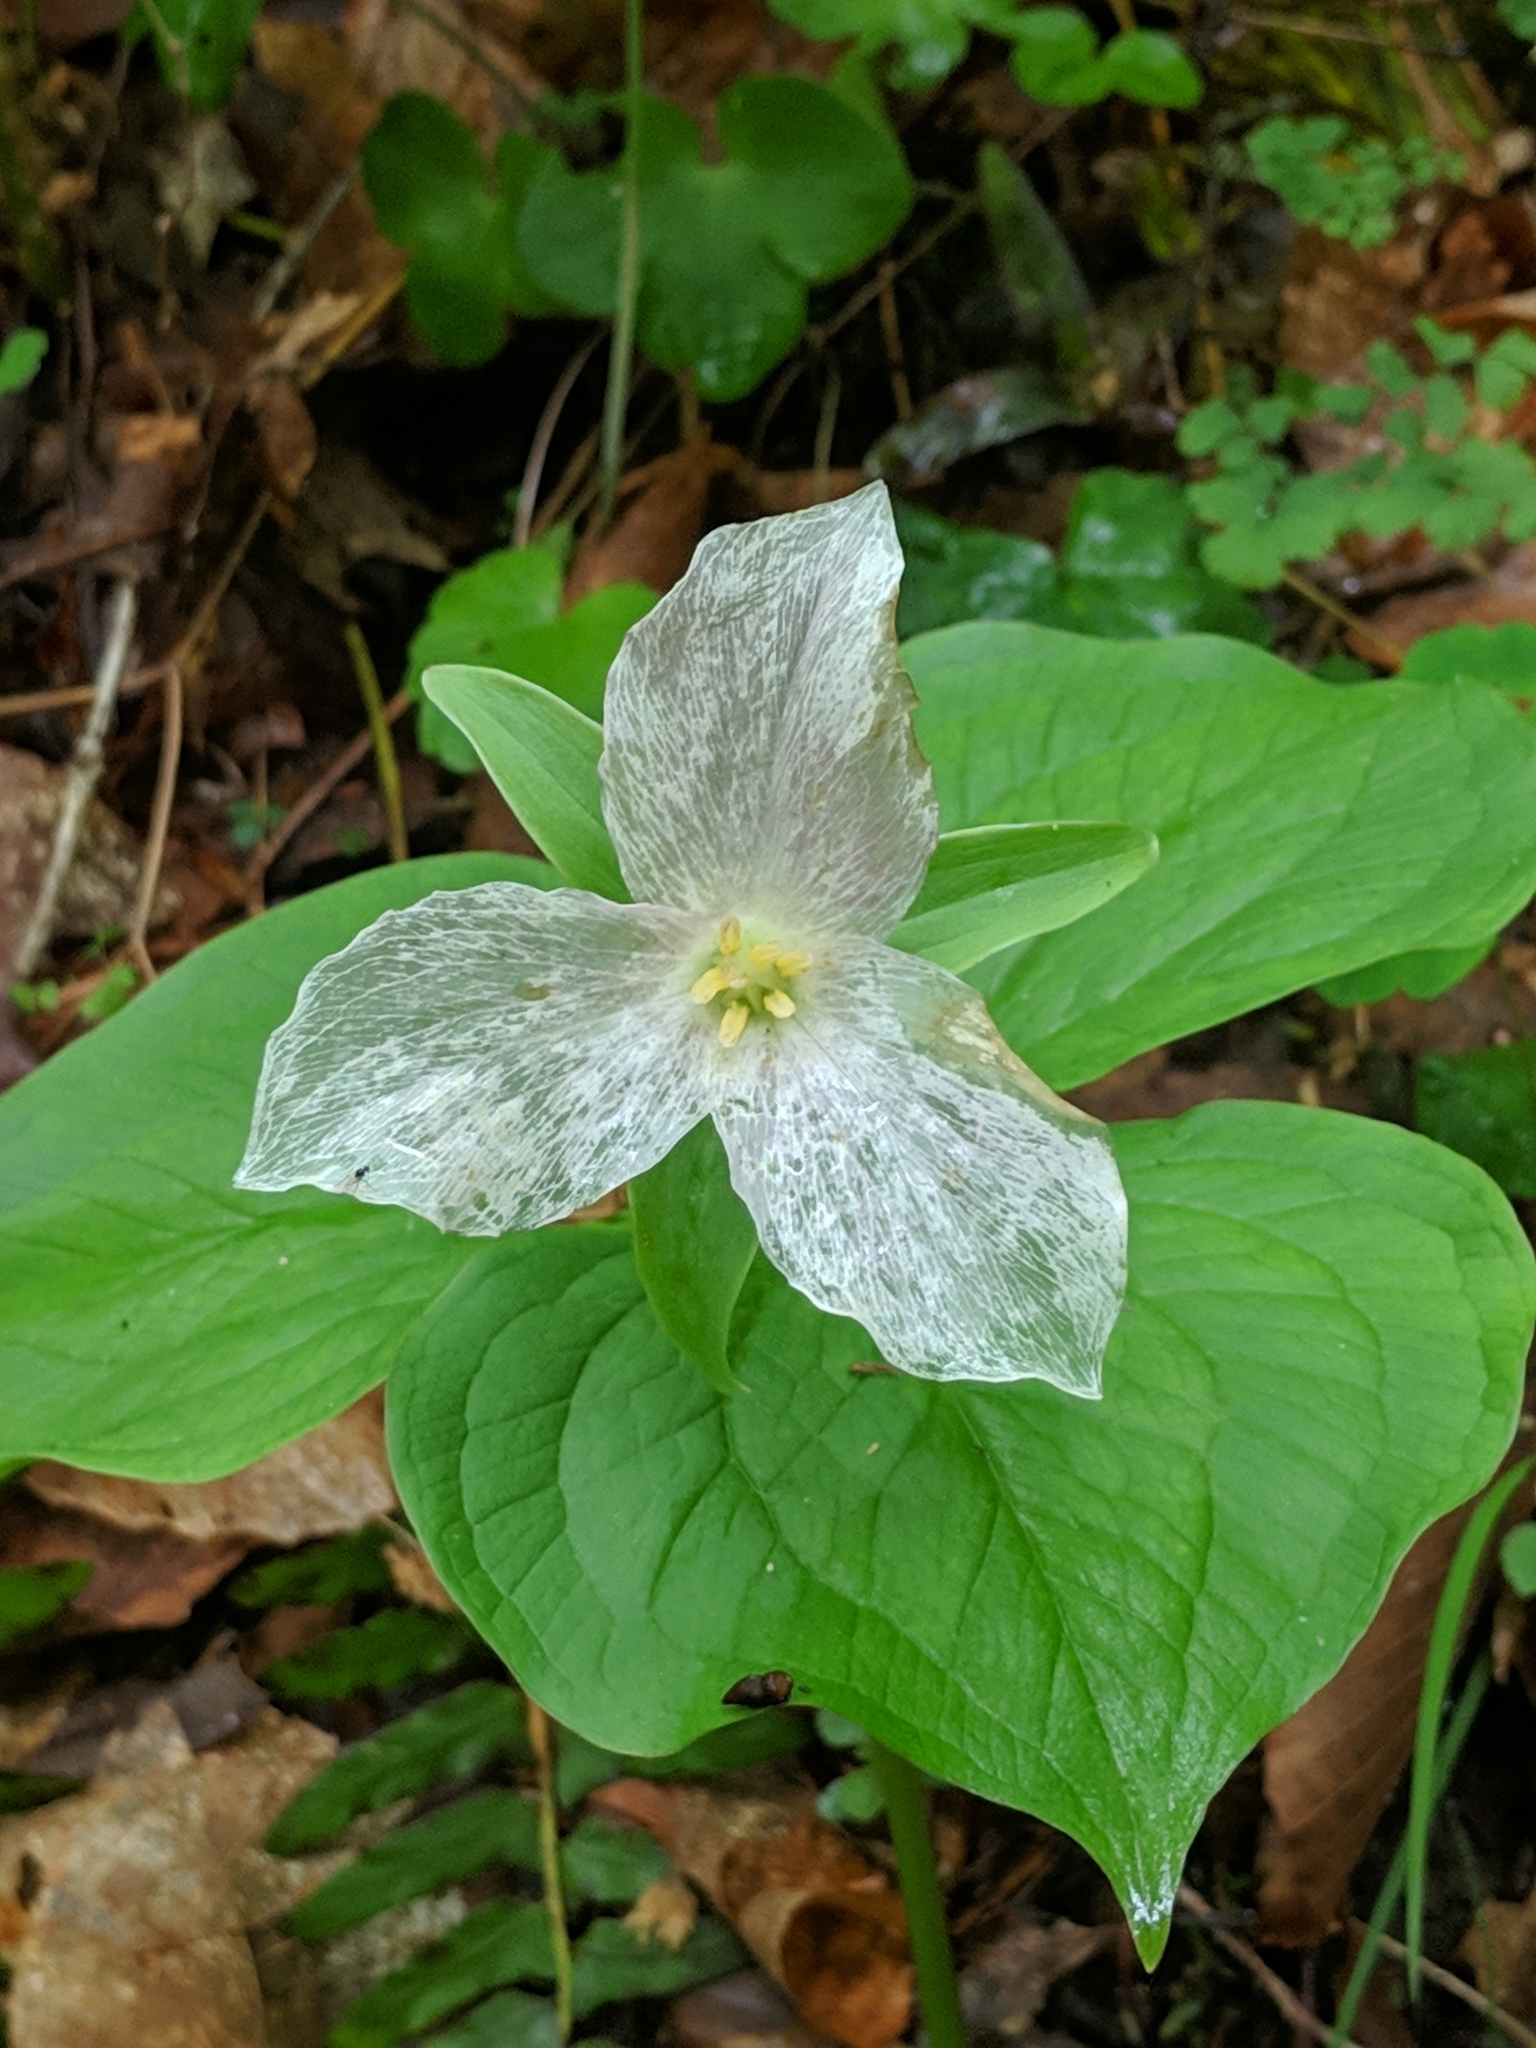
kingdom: Plantae
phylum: Tracheophyta
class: Liliopsida
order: Liliales
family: Melanthiaceae
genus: Trillium
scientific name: Trillium grandiflorum
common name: Great white trillium
